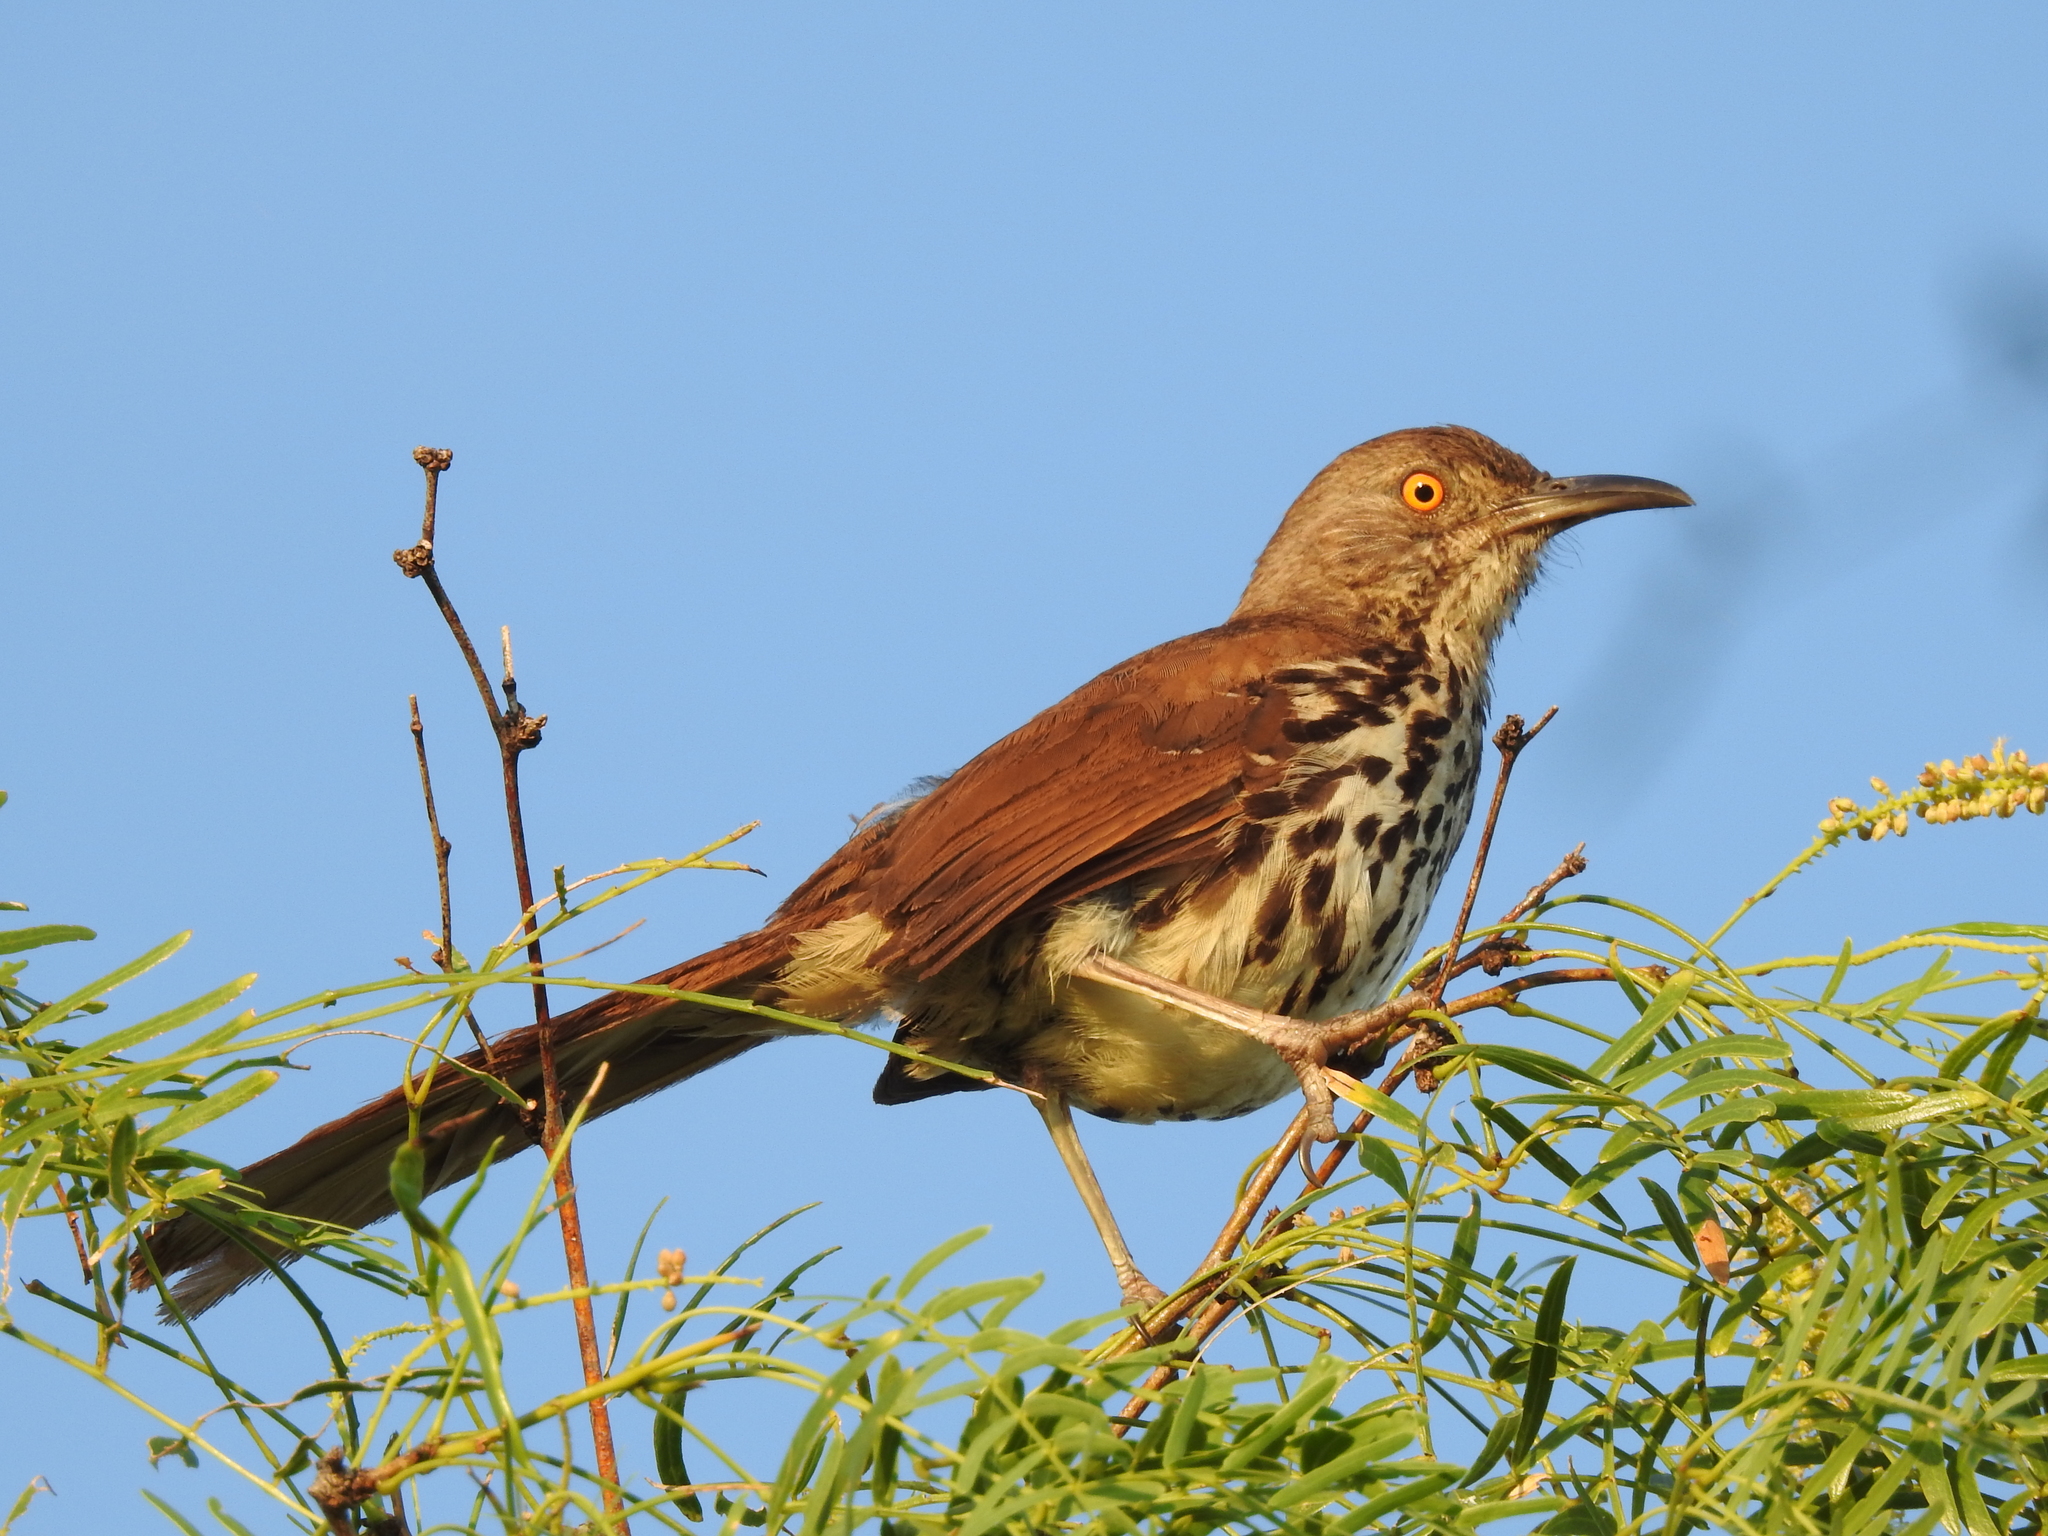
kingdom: Animalia
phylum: Chordata
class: Aves
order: Passeriformes
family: Mimidae
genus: Toxostoma
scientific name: Toxostoma longirostre
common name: Long-billed thrasher
